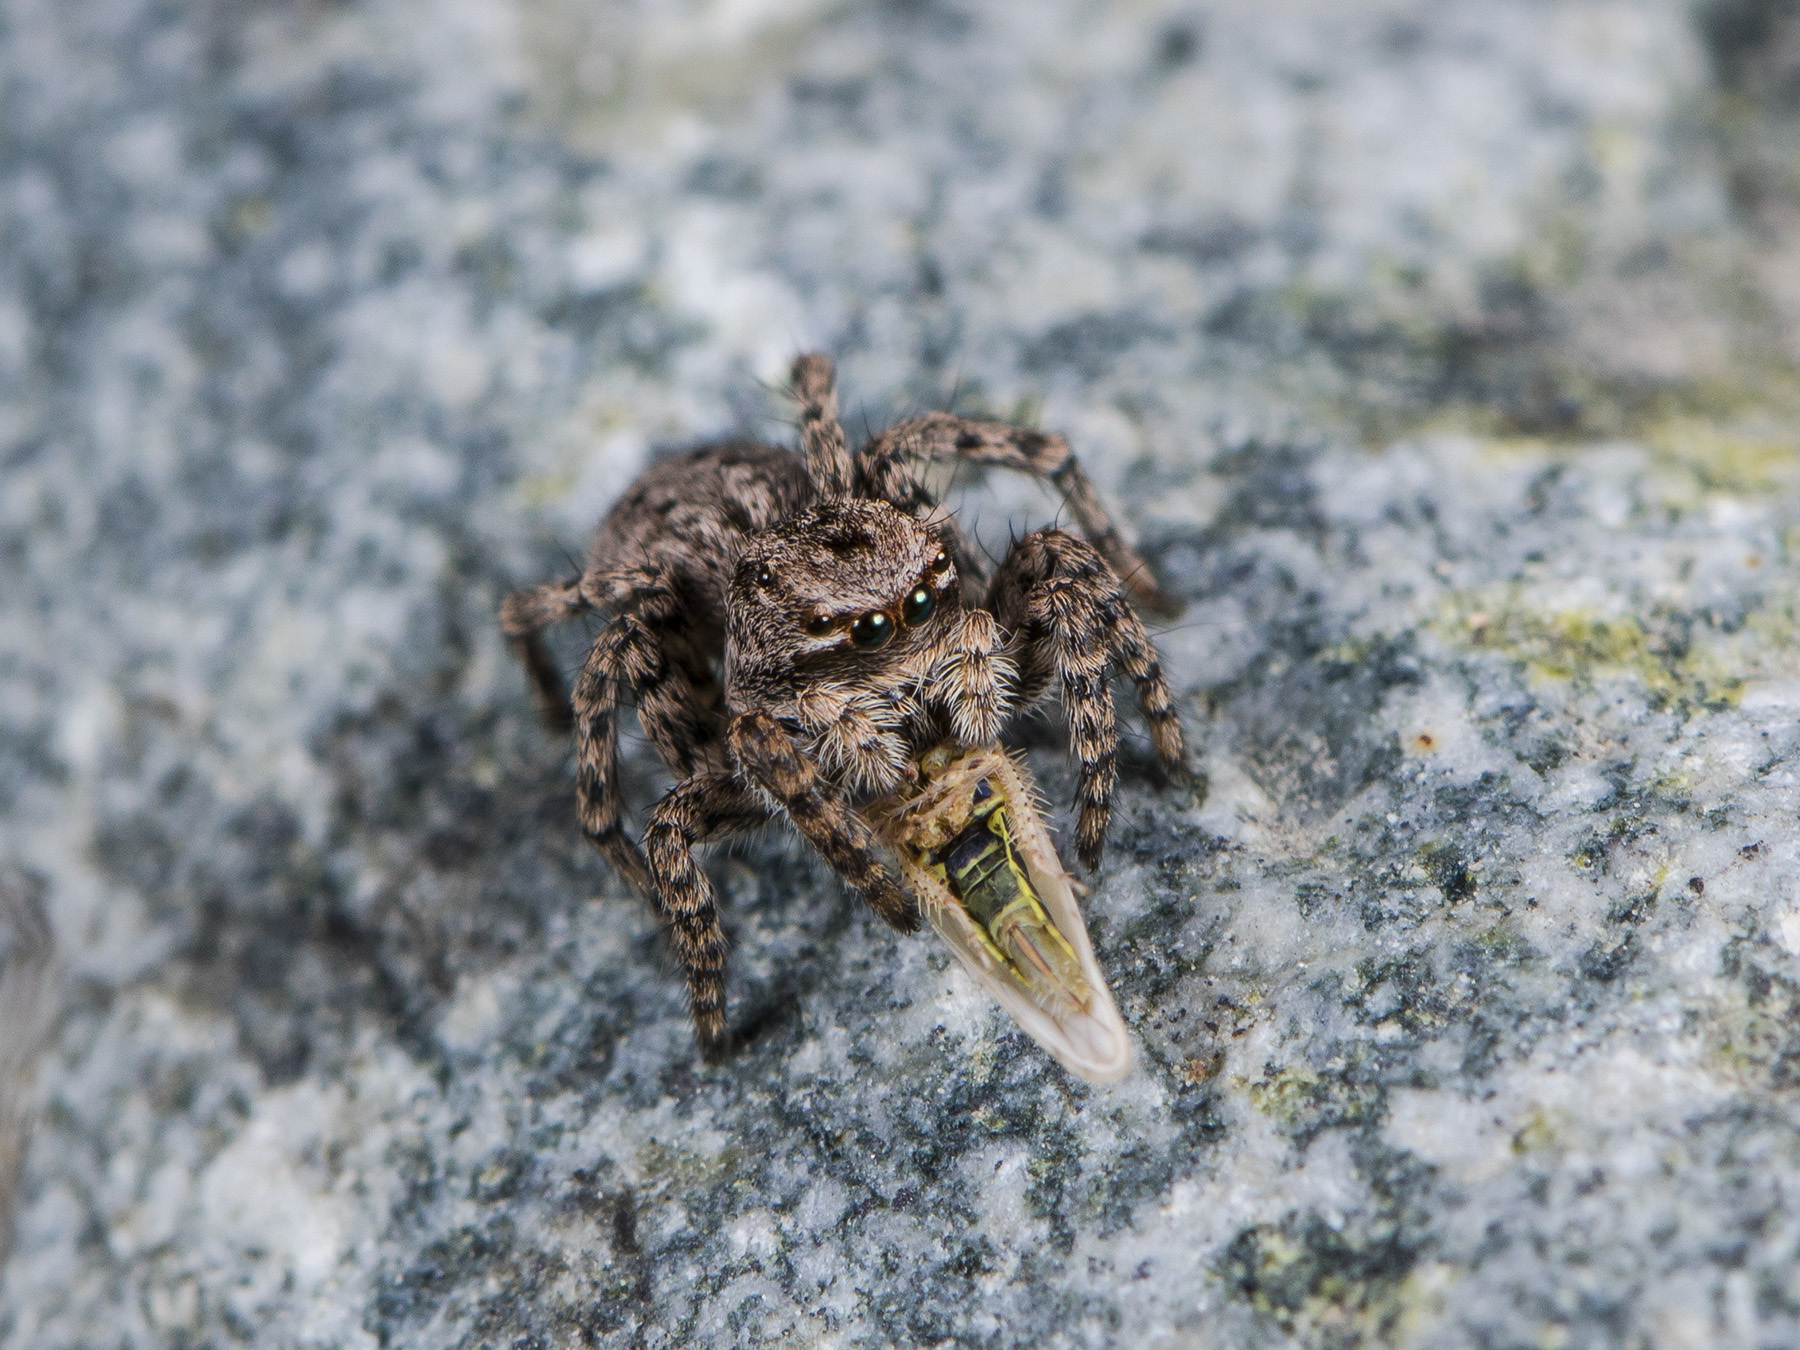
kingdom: Animalia
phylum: Arthropoda
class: Arachnida
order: Araneae
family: Salticidae
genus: Aelurillus
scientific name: Aelurillus v-insignitus
